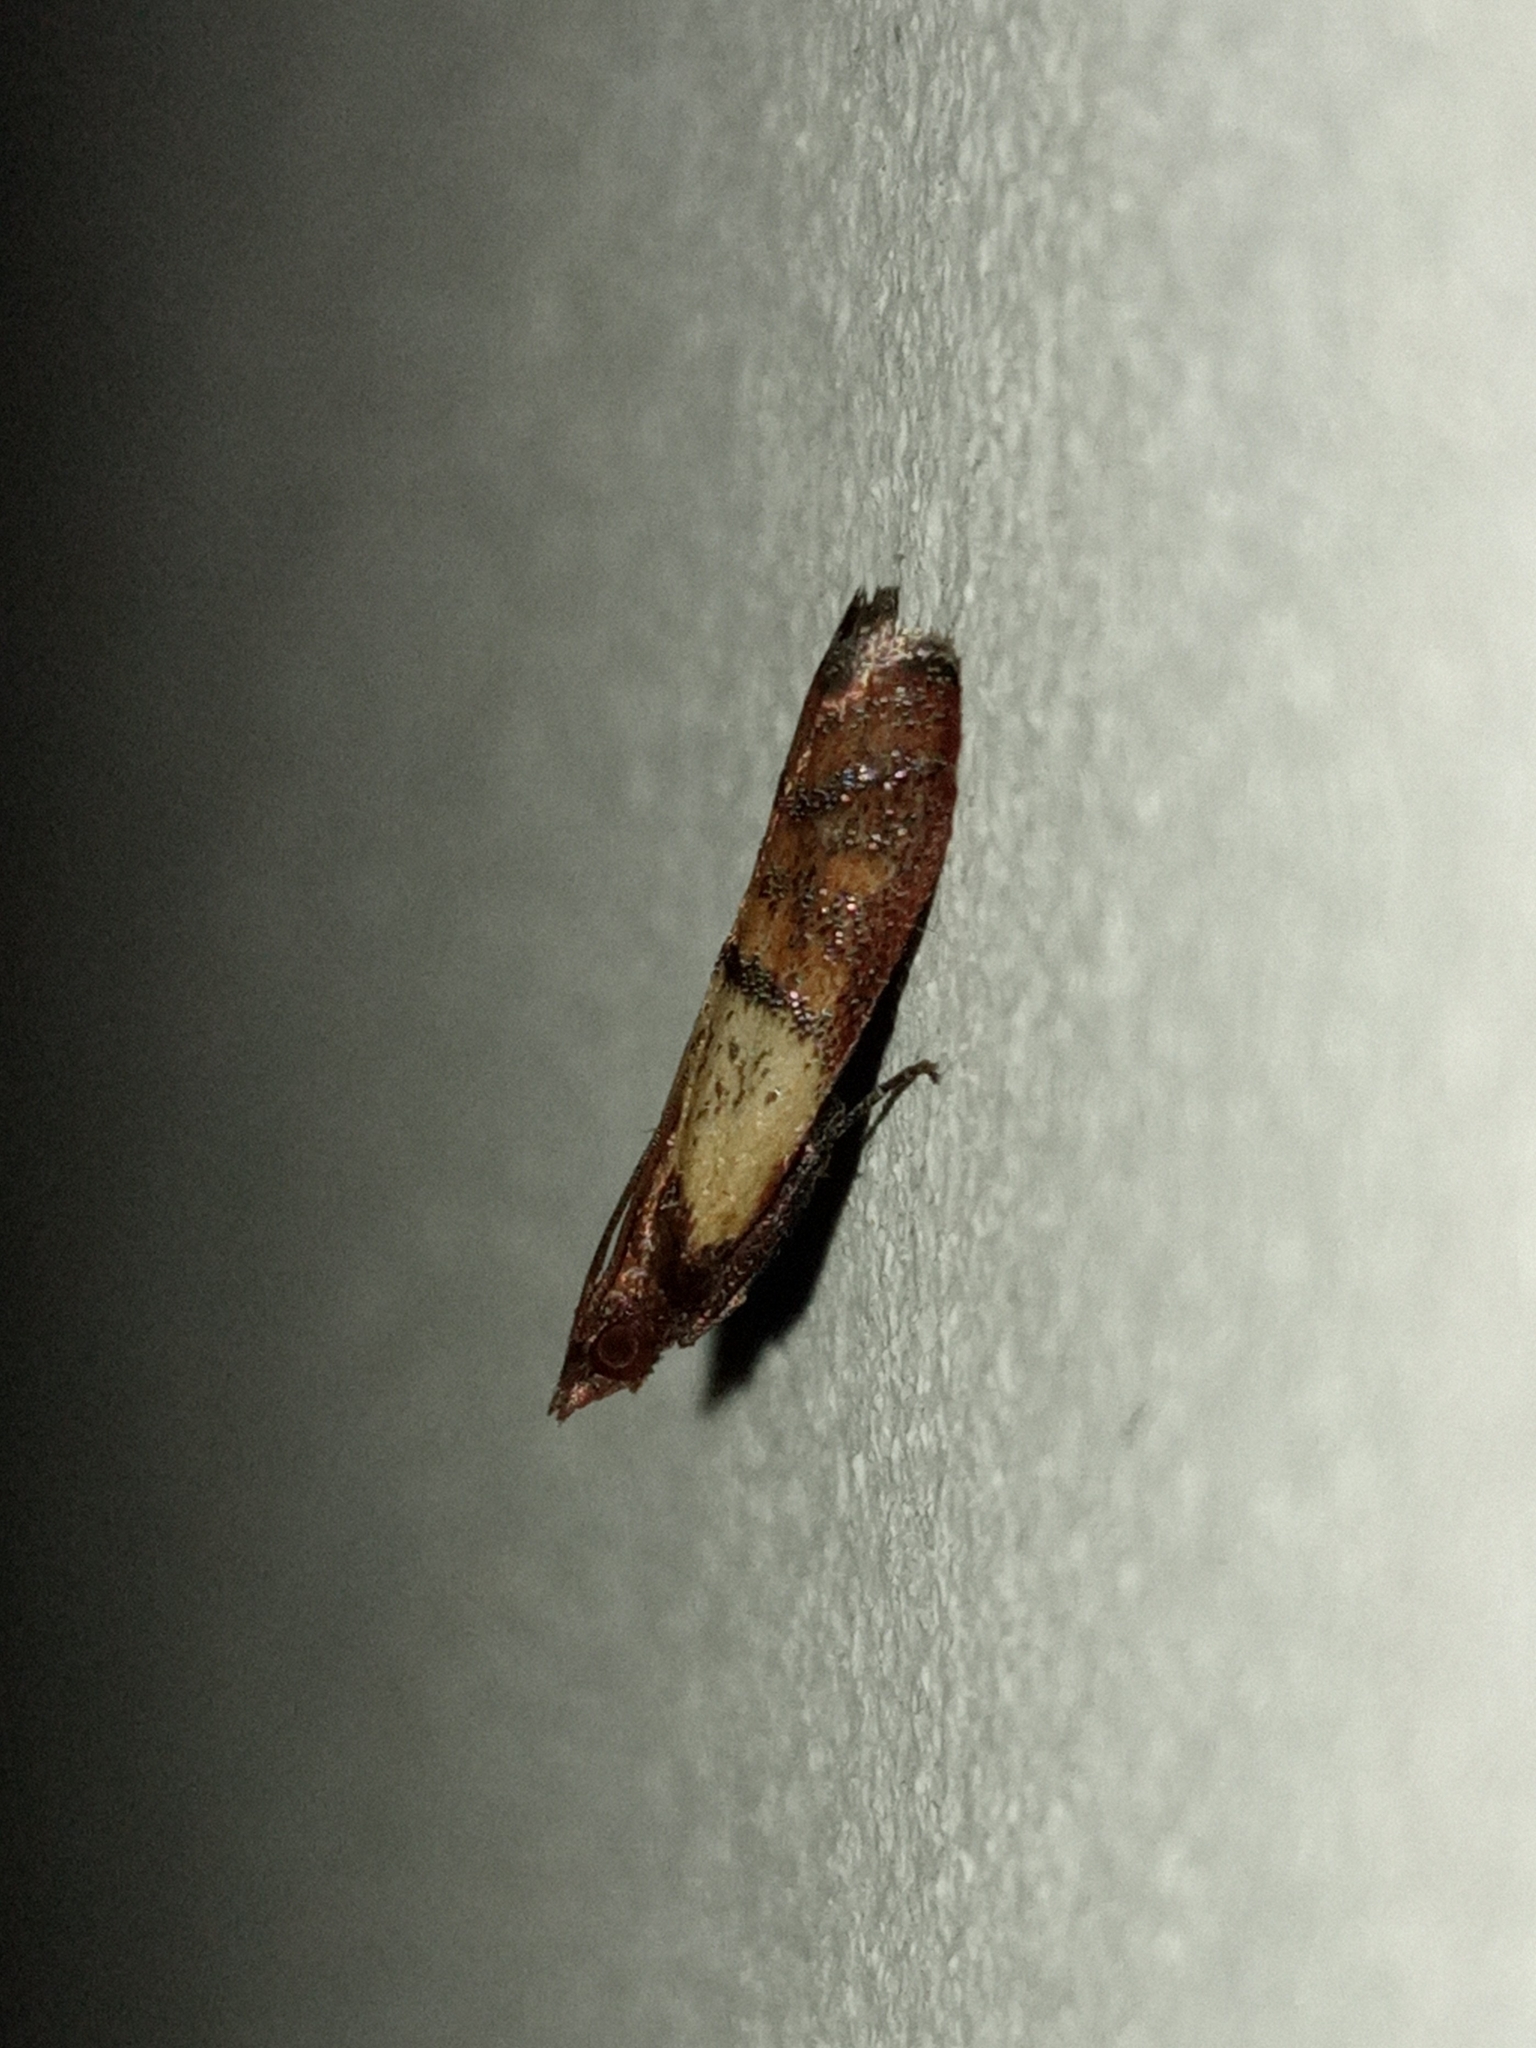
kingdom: Animalia
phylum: Arthropoda
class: Insecta
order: Lepidoptera
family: Pyralidae
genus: Plodia
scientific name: Plodia interpunctella
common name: Indian meal moth
